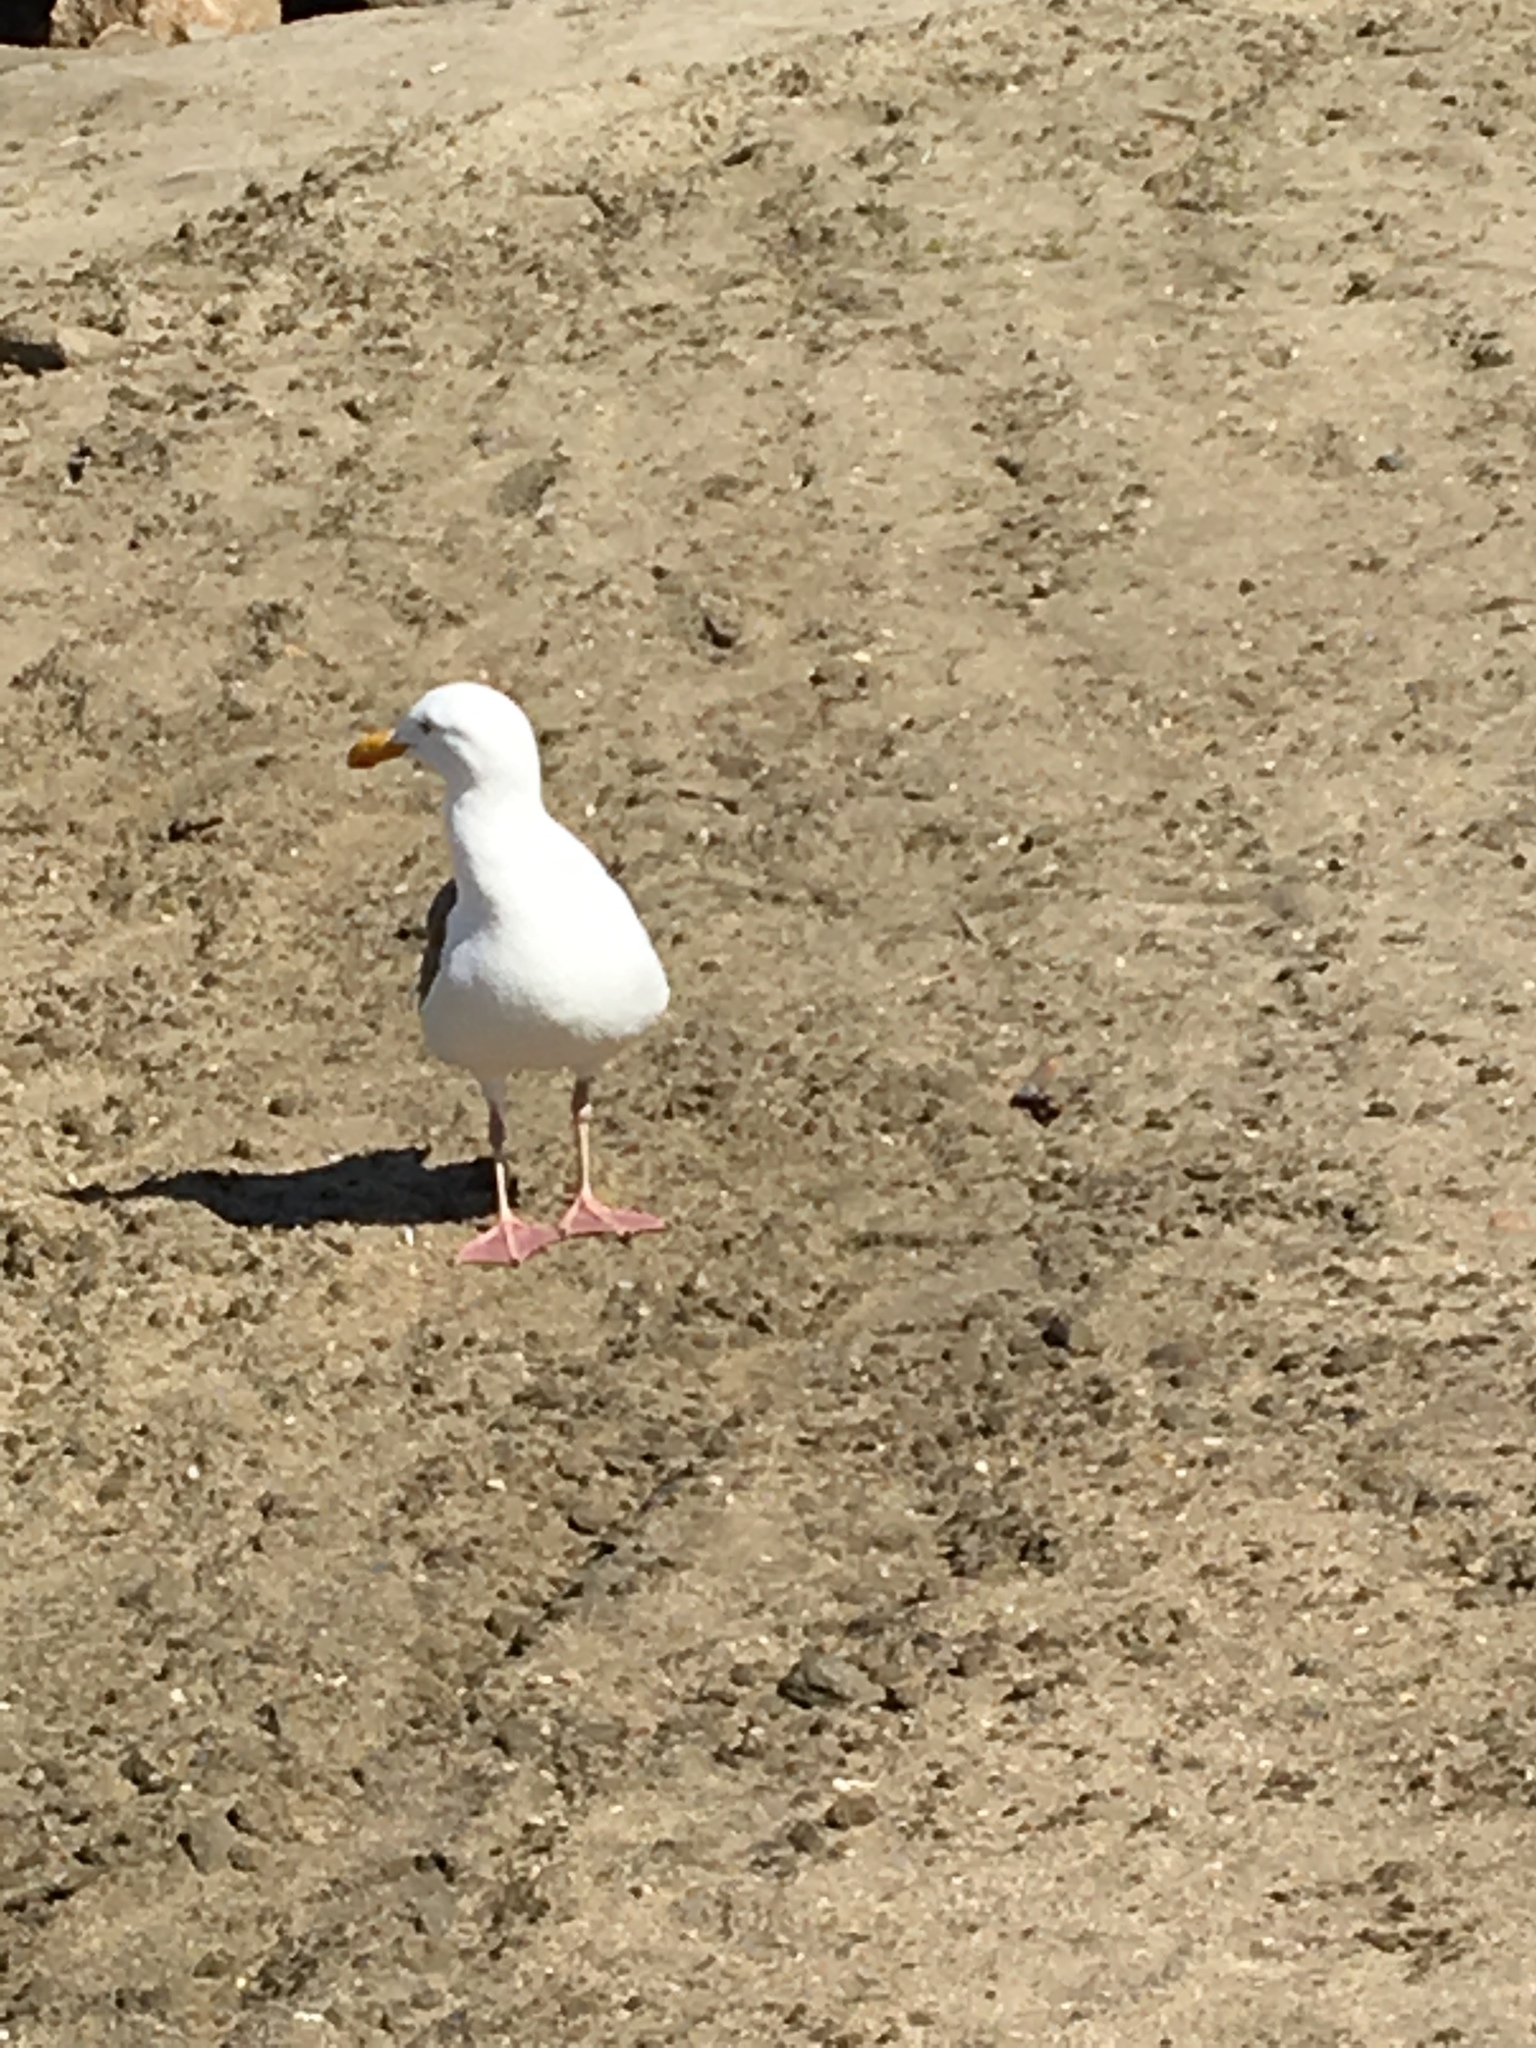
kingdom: Animalia
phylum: Chordata
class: Aves
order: Charadriiformes
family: Laridae
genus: Larus
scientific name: Larus occidentalis
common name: Western gull
